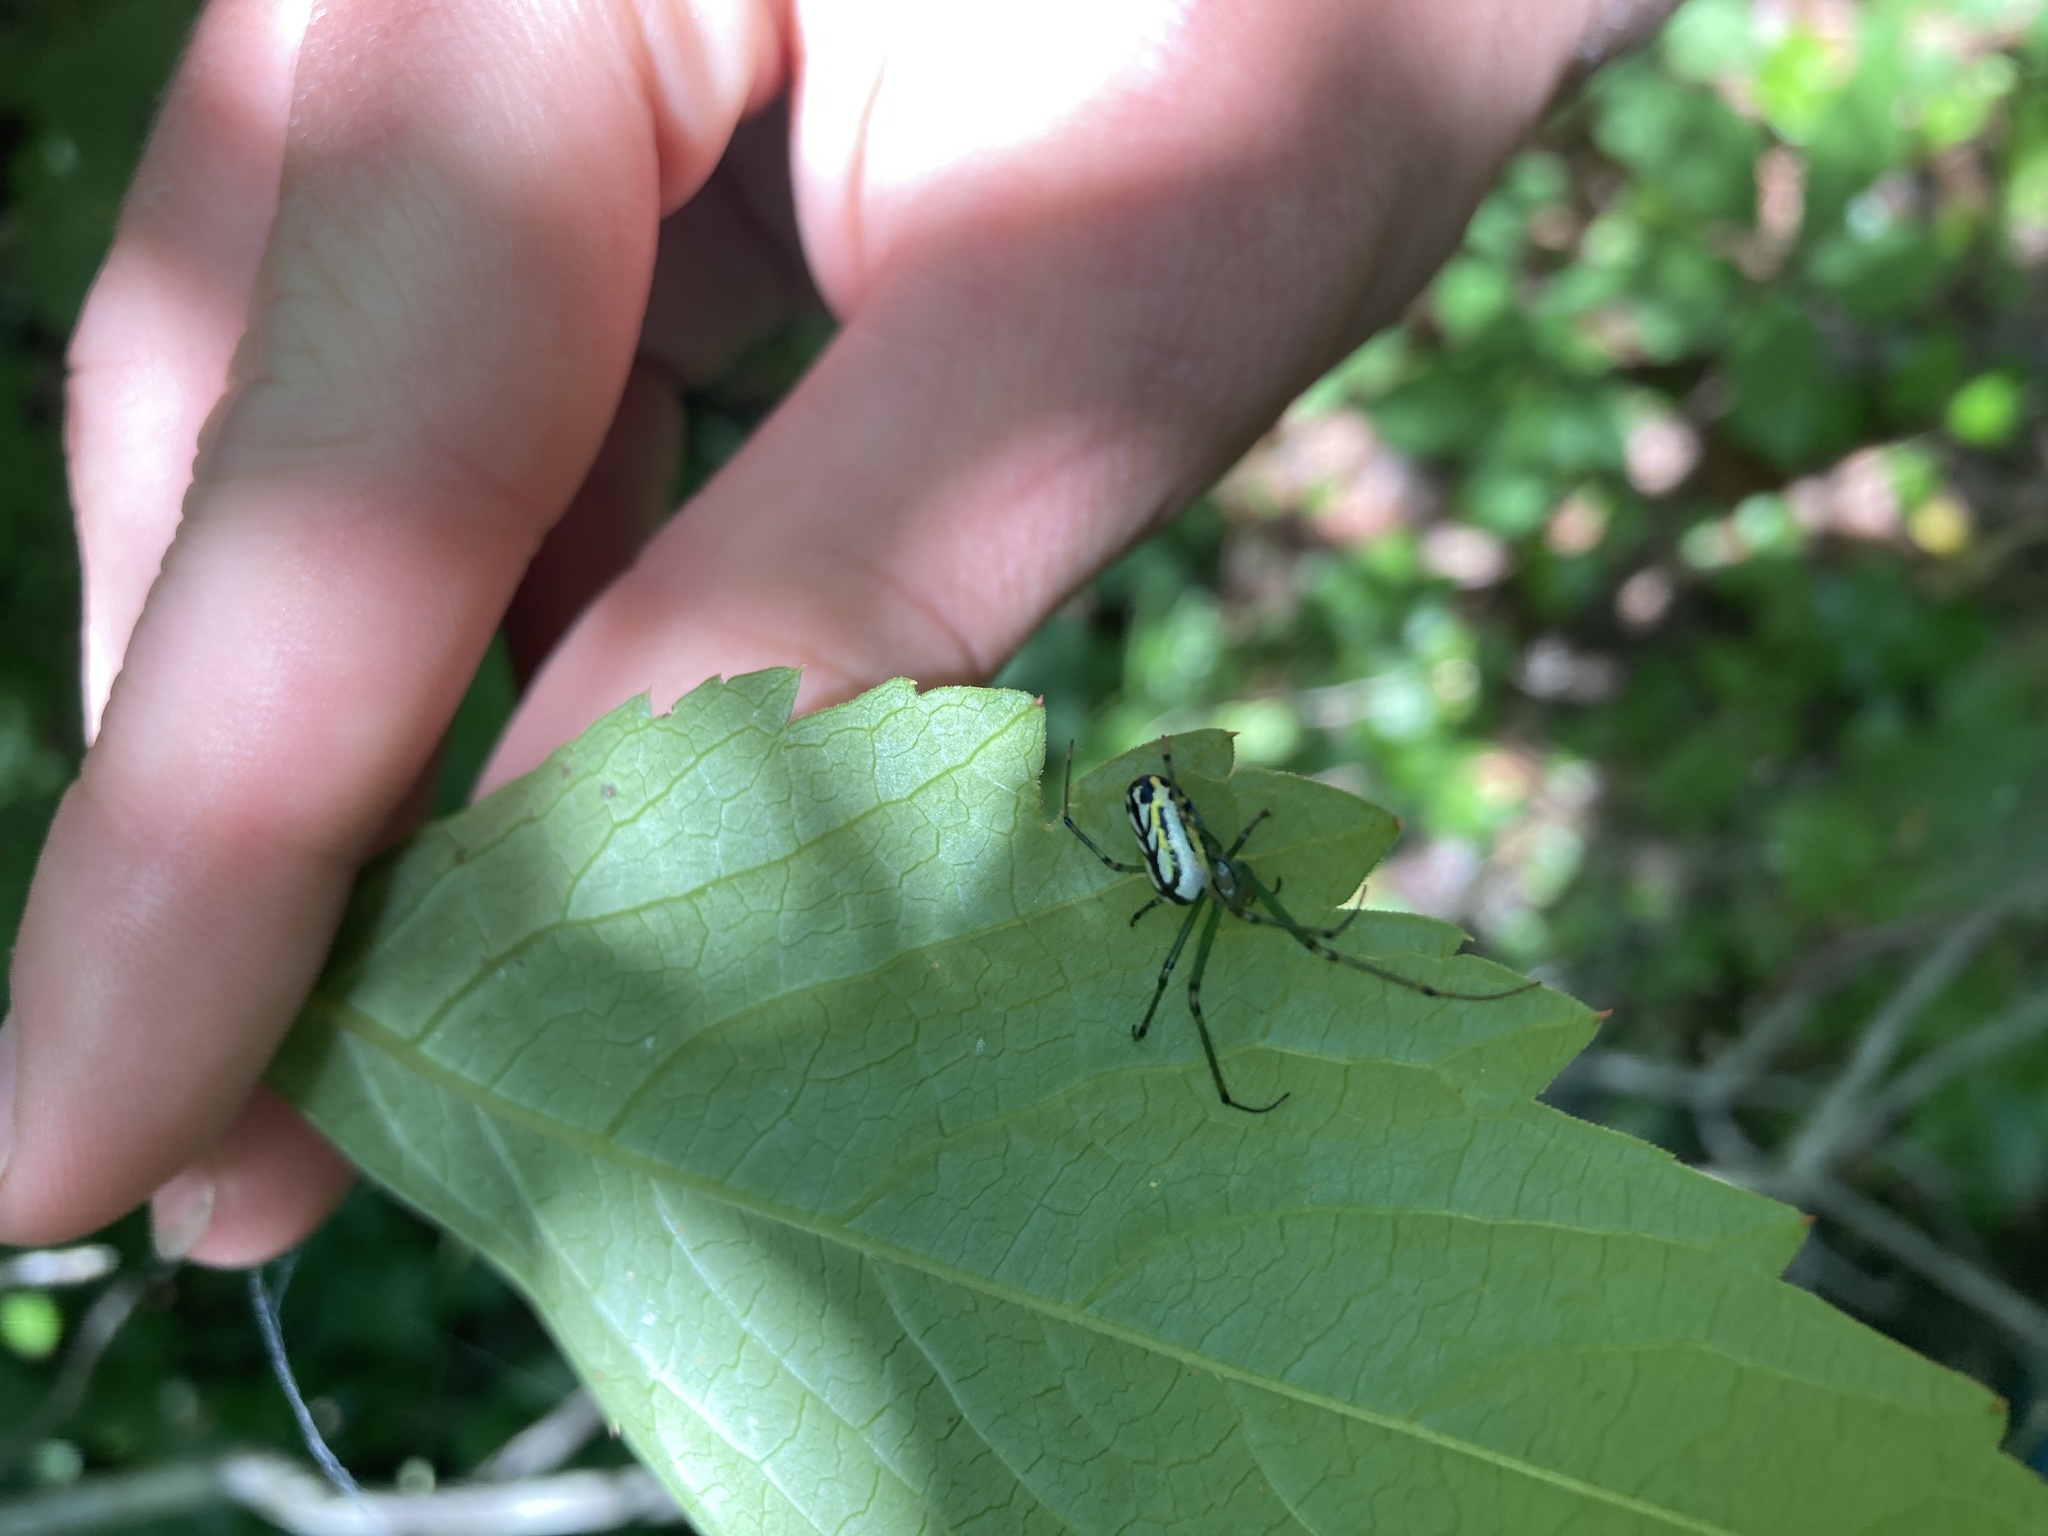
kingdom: Animalia
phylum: Arthropoda
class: Arachnida
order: Araneae
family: Tetragnathidae
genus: Leucauge
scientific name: Leucauge venusta
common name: Longjawed orb weavers
